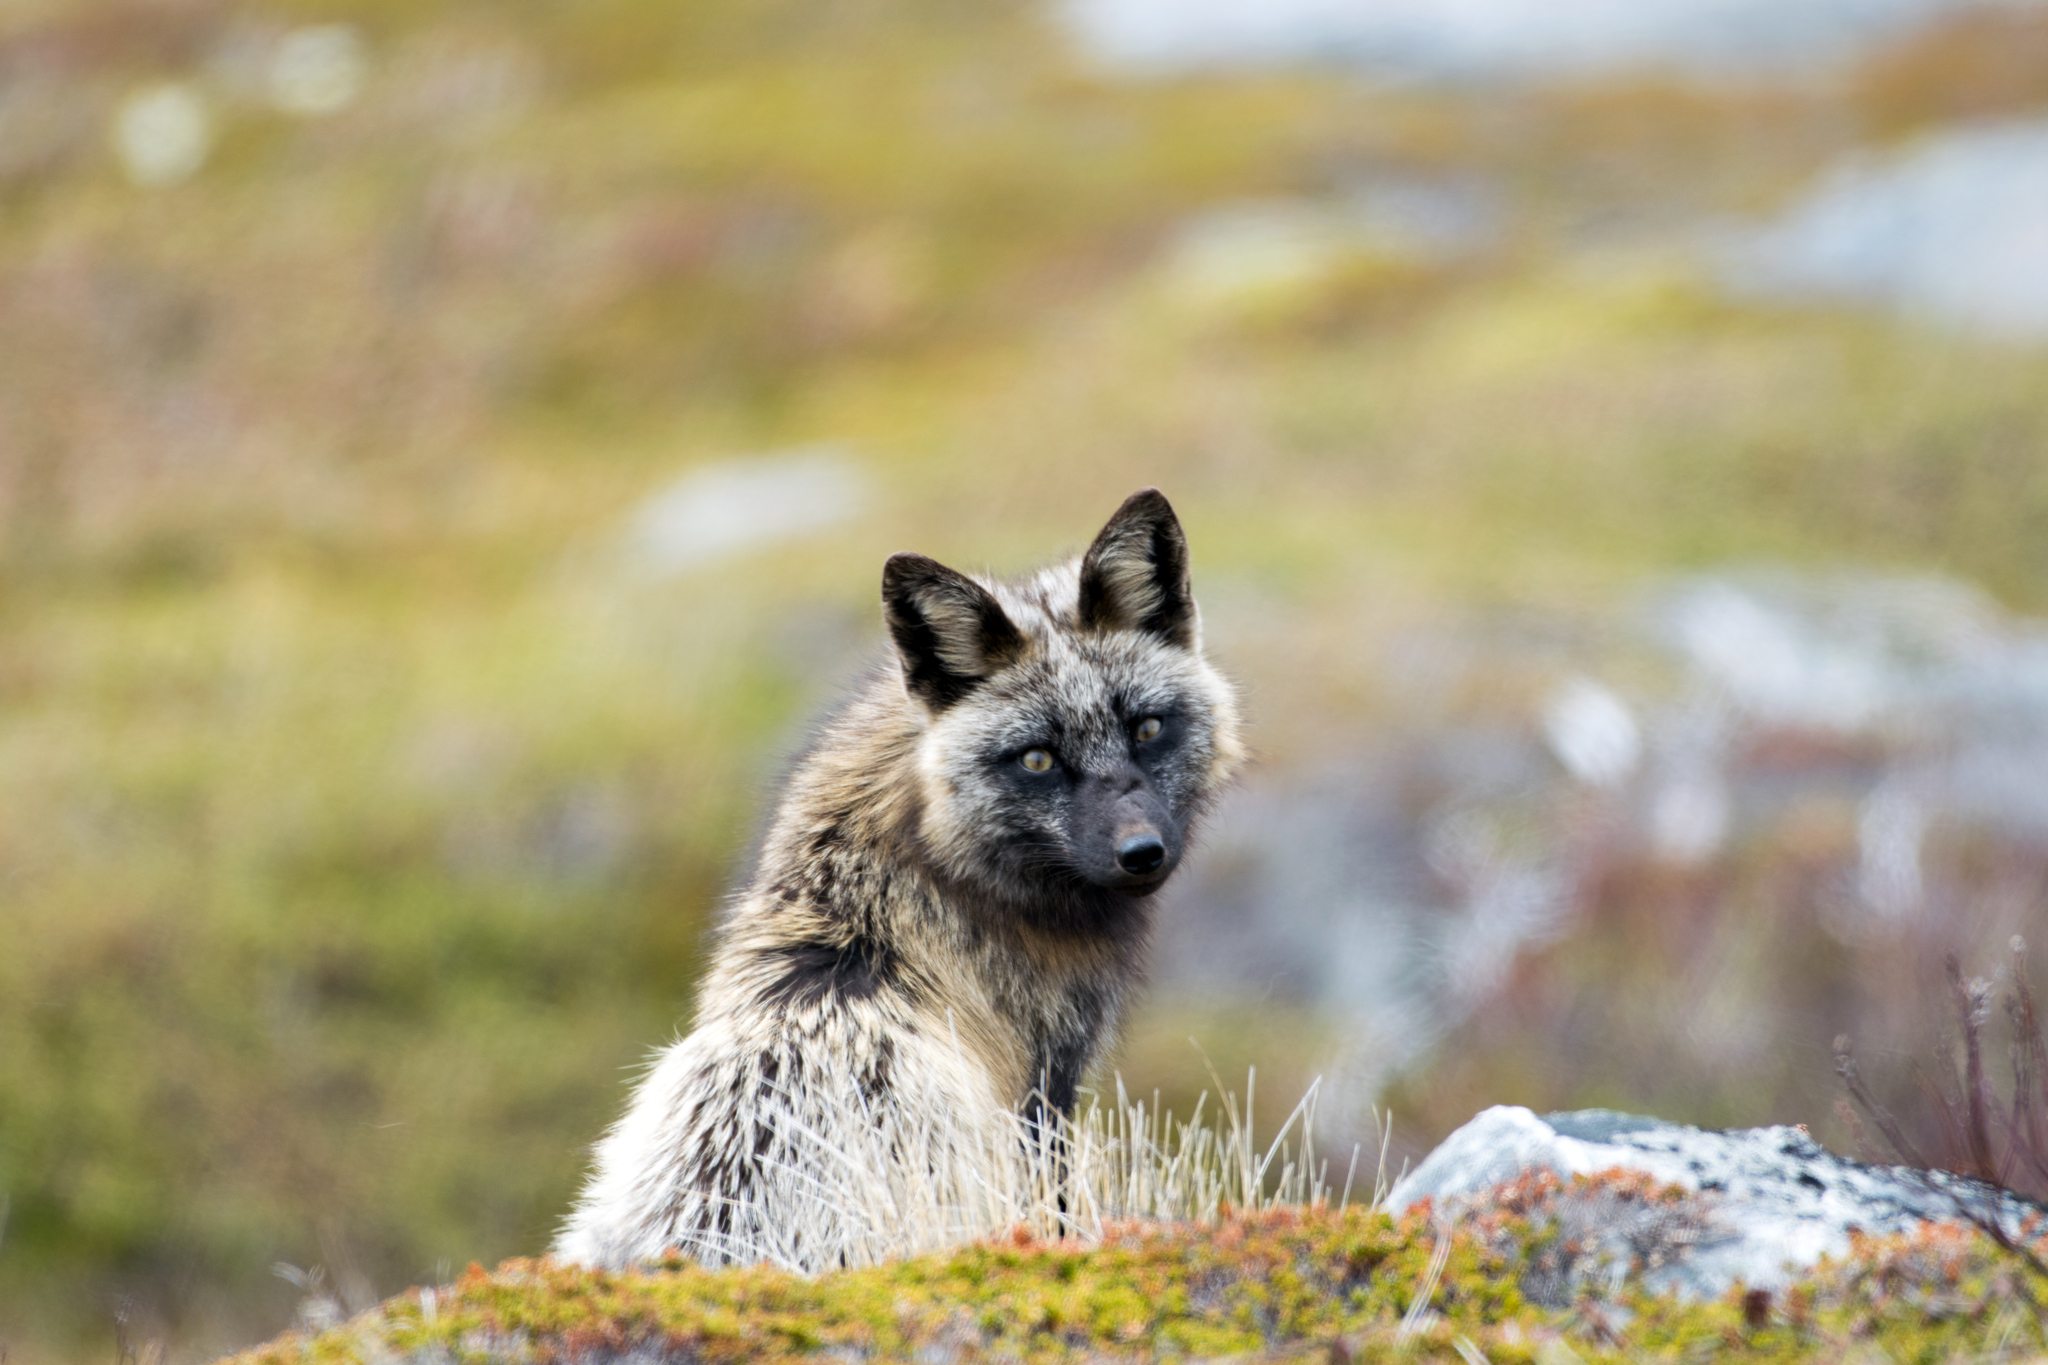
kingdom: Animalia
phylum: Chordata
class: Mammalia
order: Carnivora
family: Canidae
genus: Vulpes
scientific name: Vulpes vulpes
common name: Red fox
